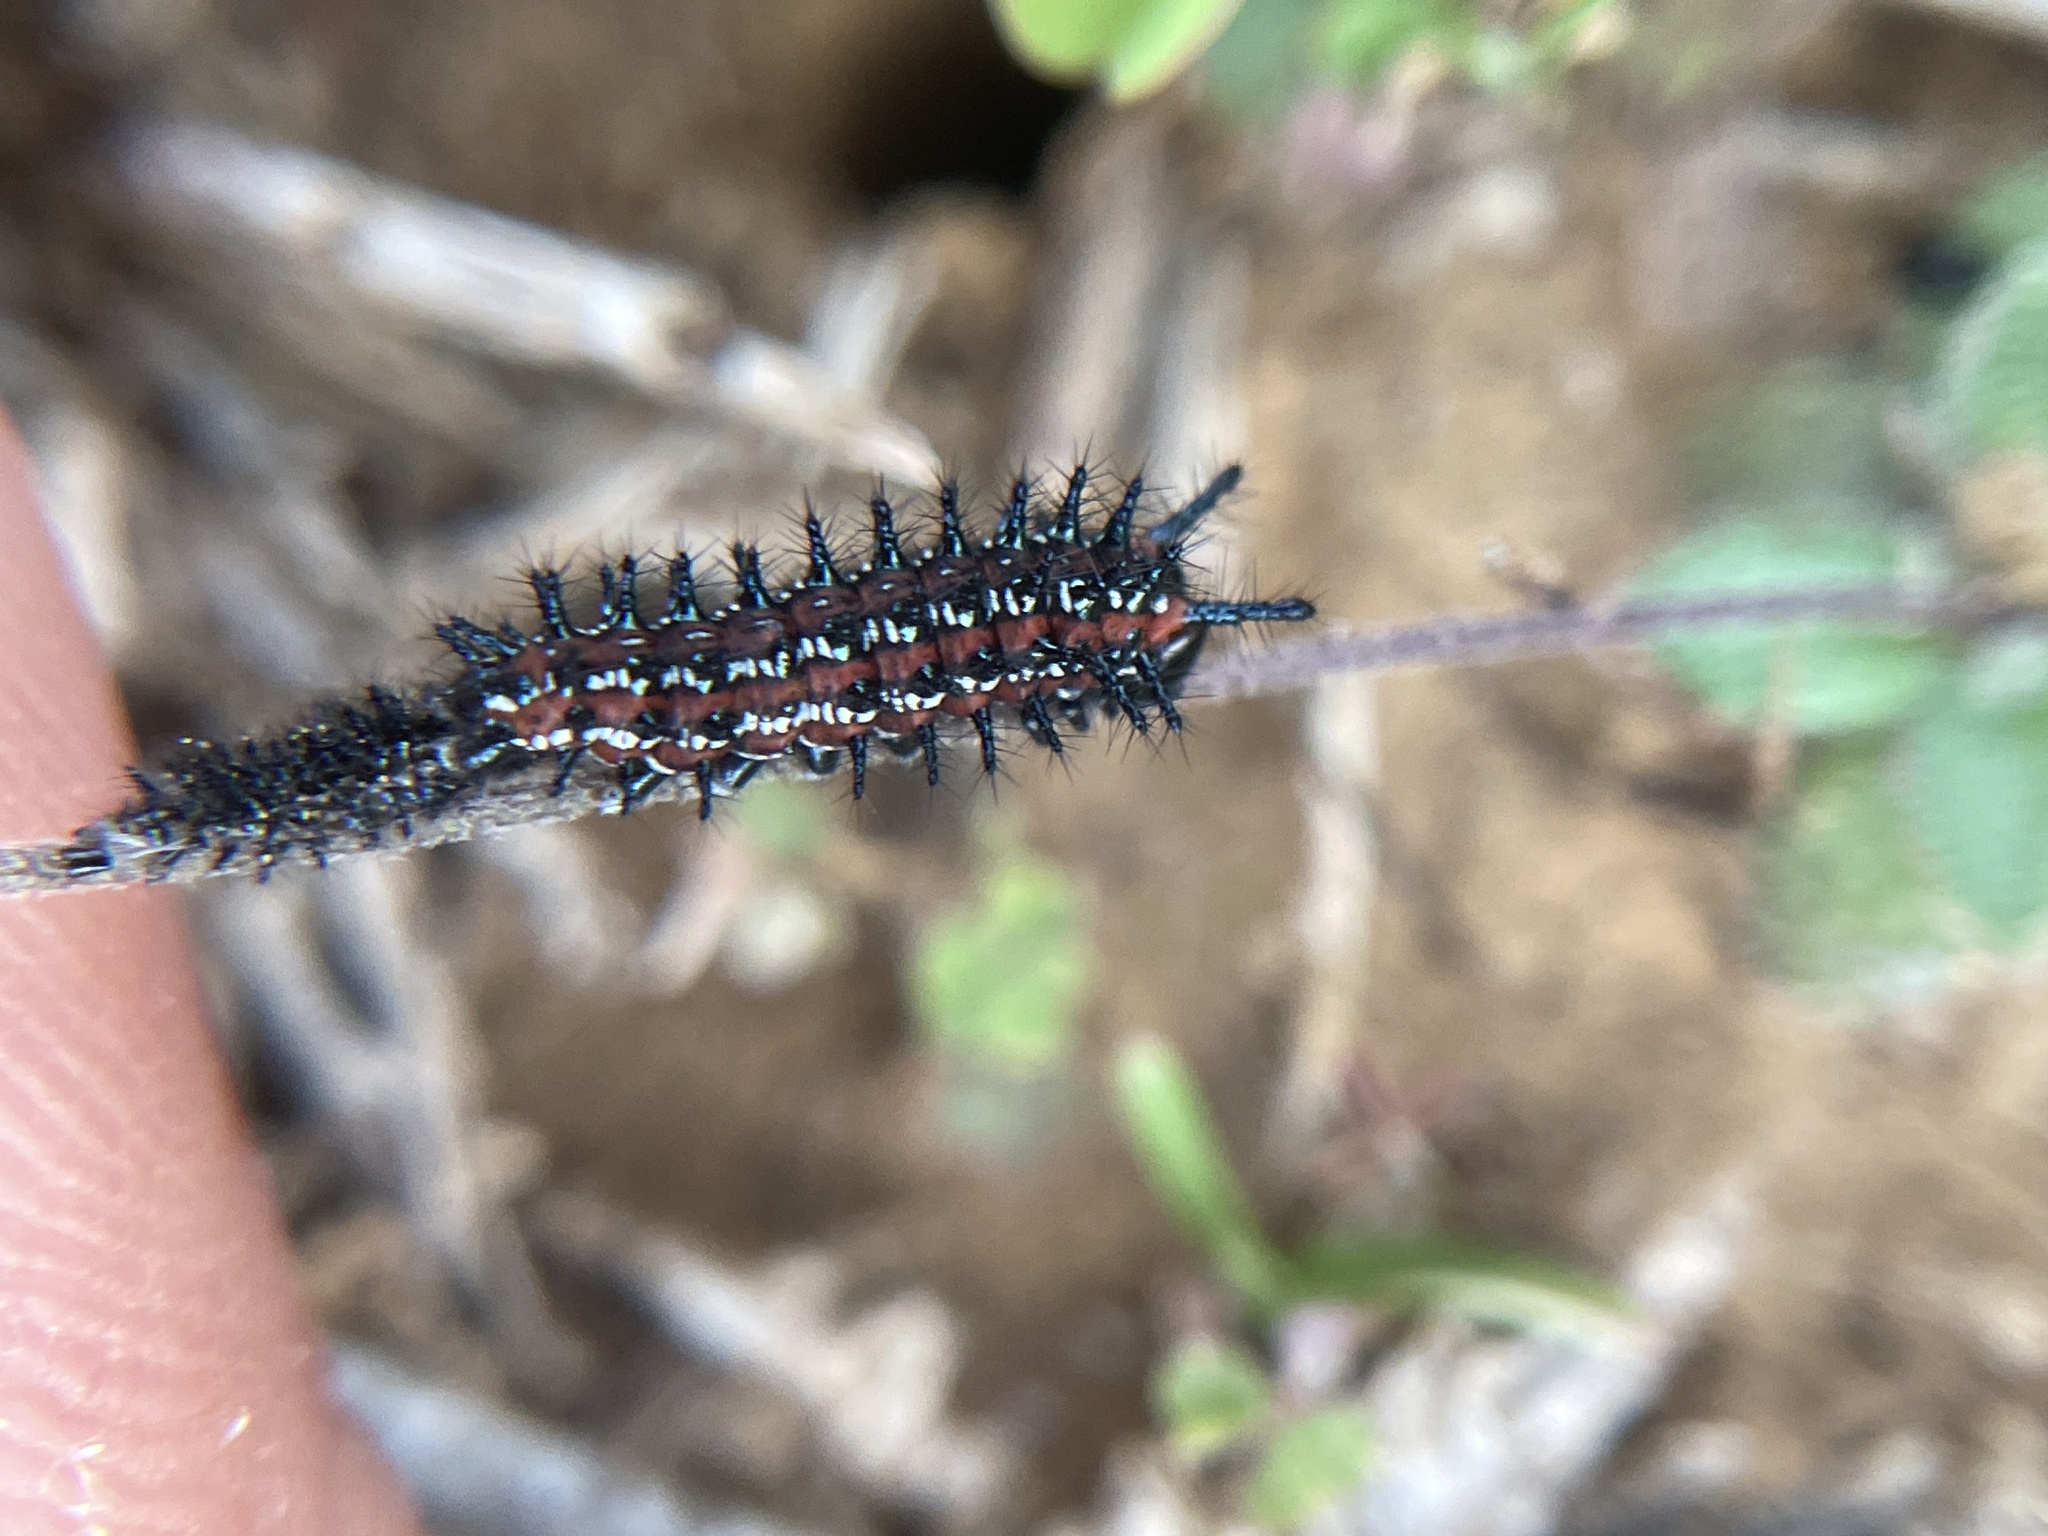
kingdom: Animalia
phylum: Arthropoda
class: Insecta
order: Lepidoptera
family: Nymphalidae
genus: Euptoieta
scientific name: Euptoieta claudia
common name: Variegated fritillary
